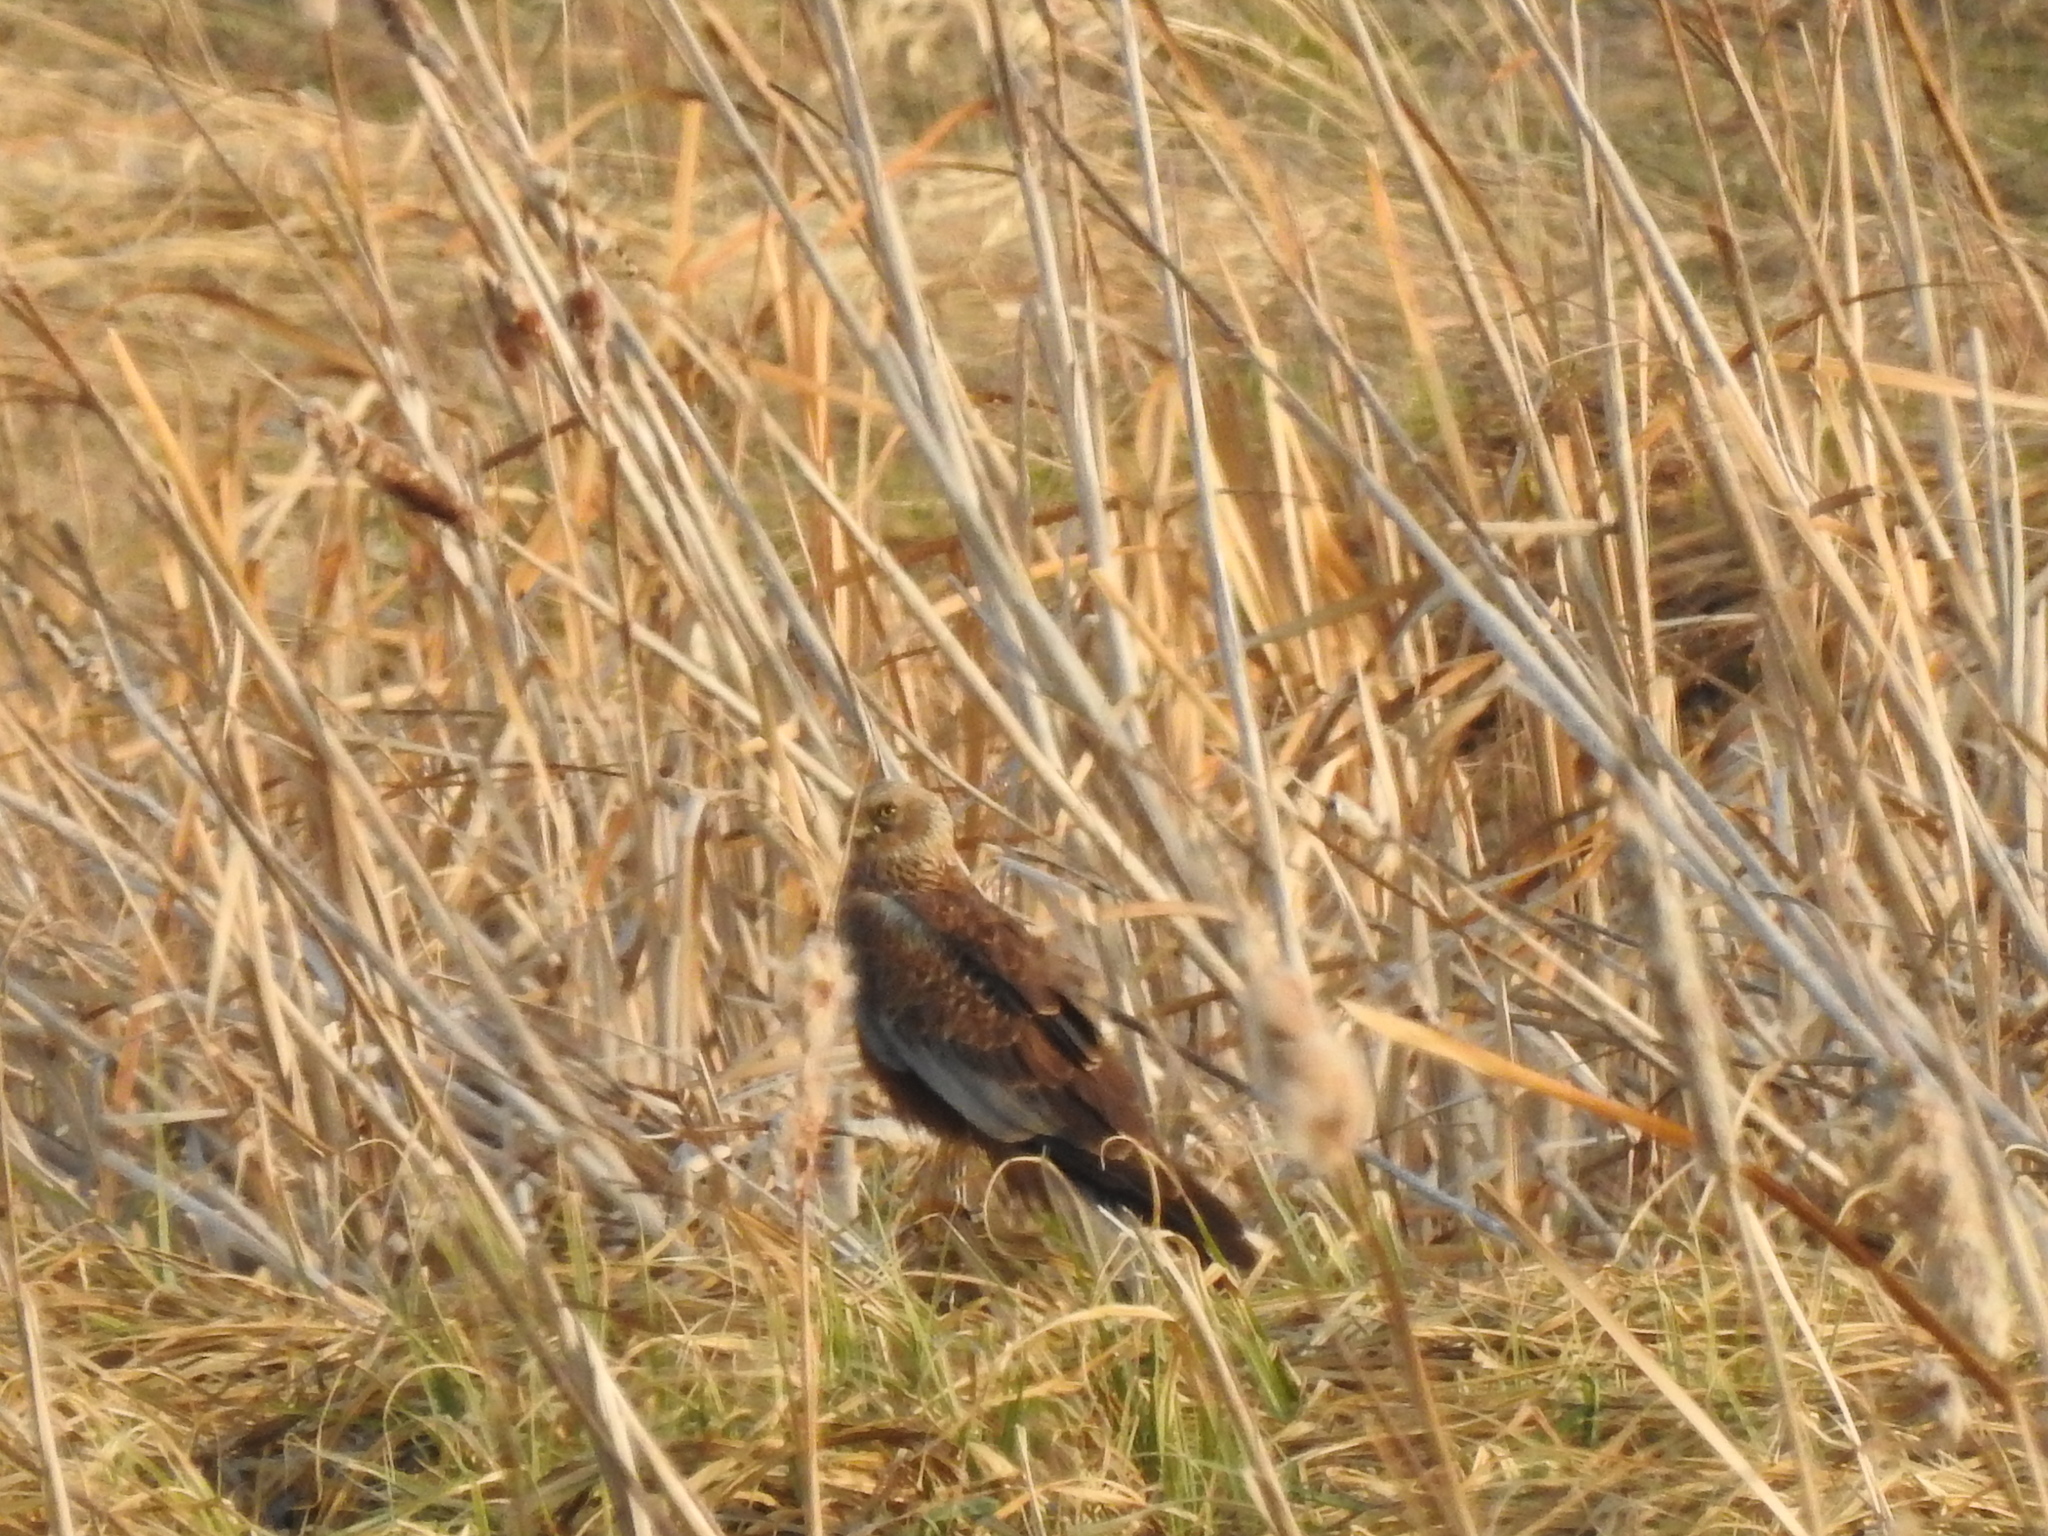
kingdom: Animalia
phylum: Chordata
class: Aves
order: Accipitriformes
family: Accipitridae
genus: Circus
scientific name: Circus aeruginosus
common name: Western marsh harrier
